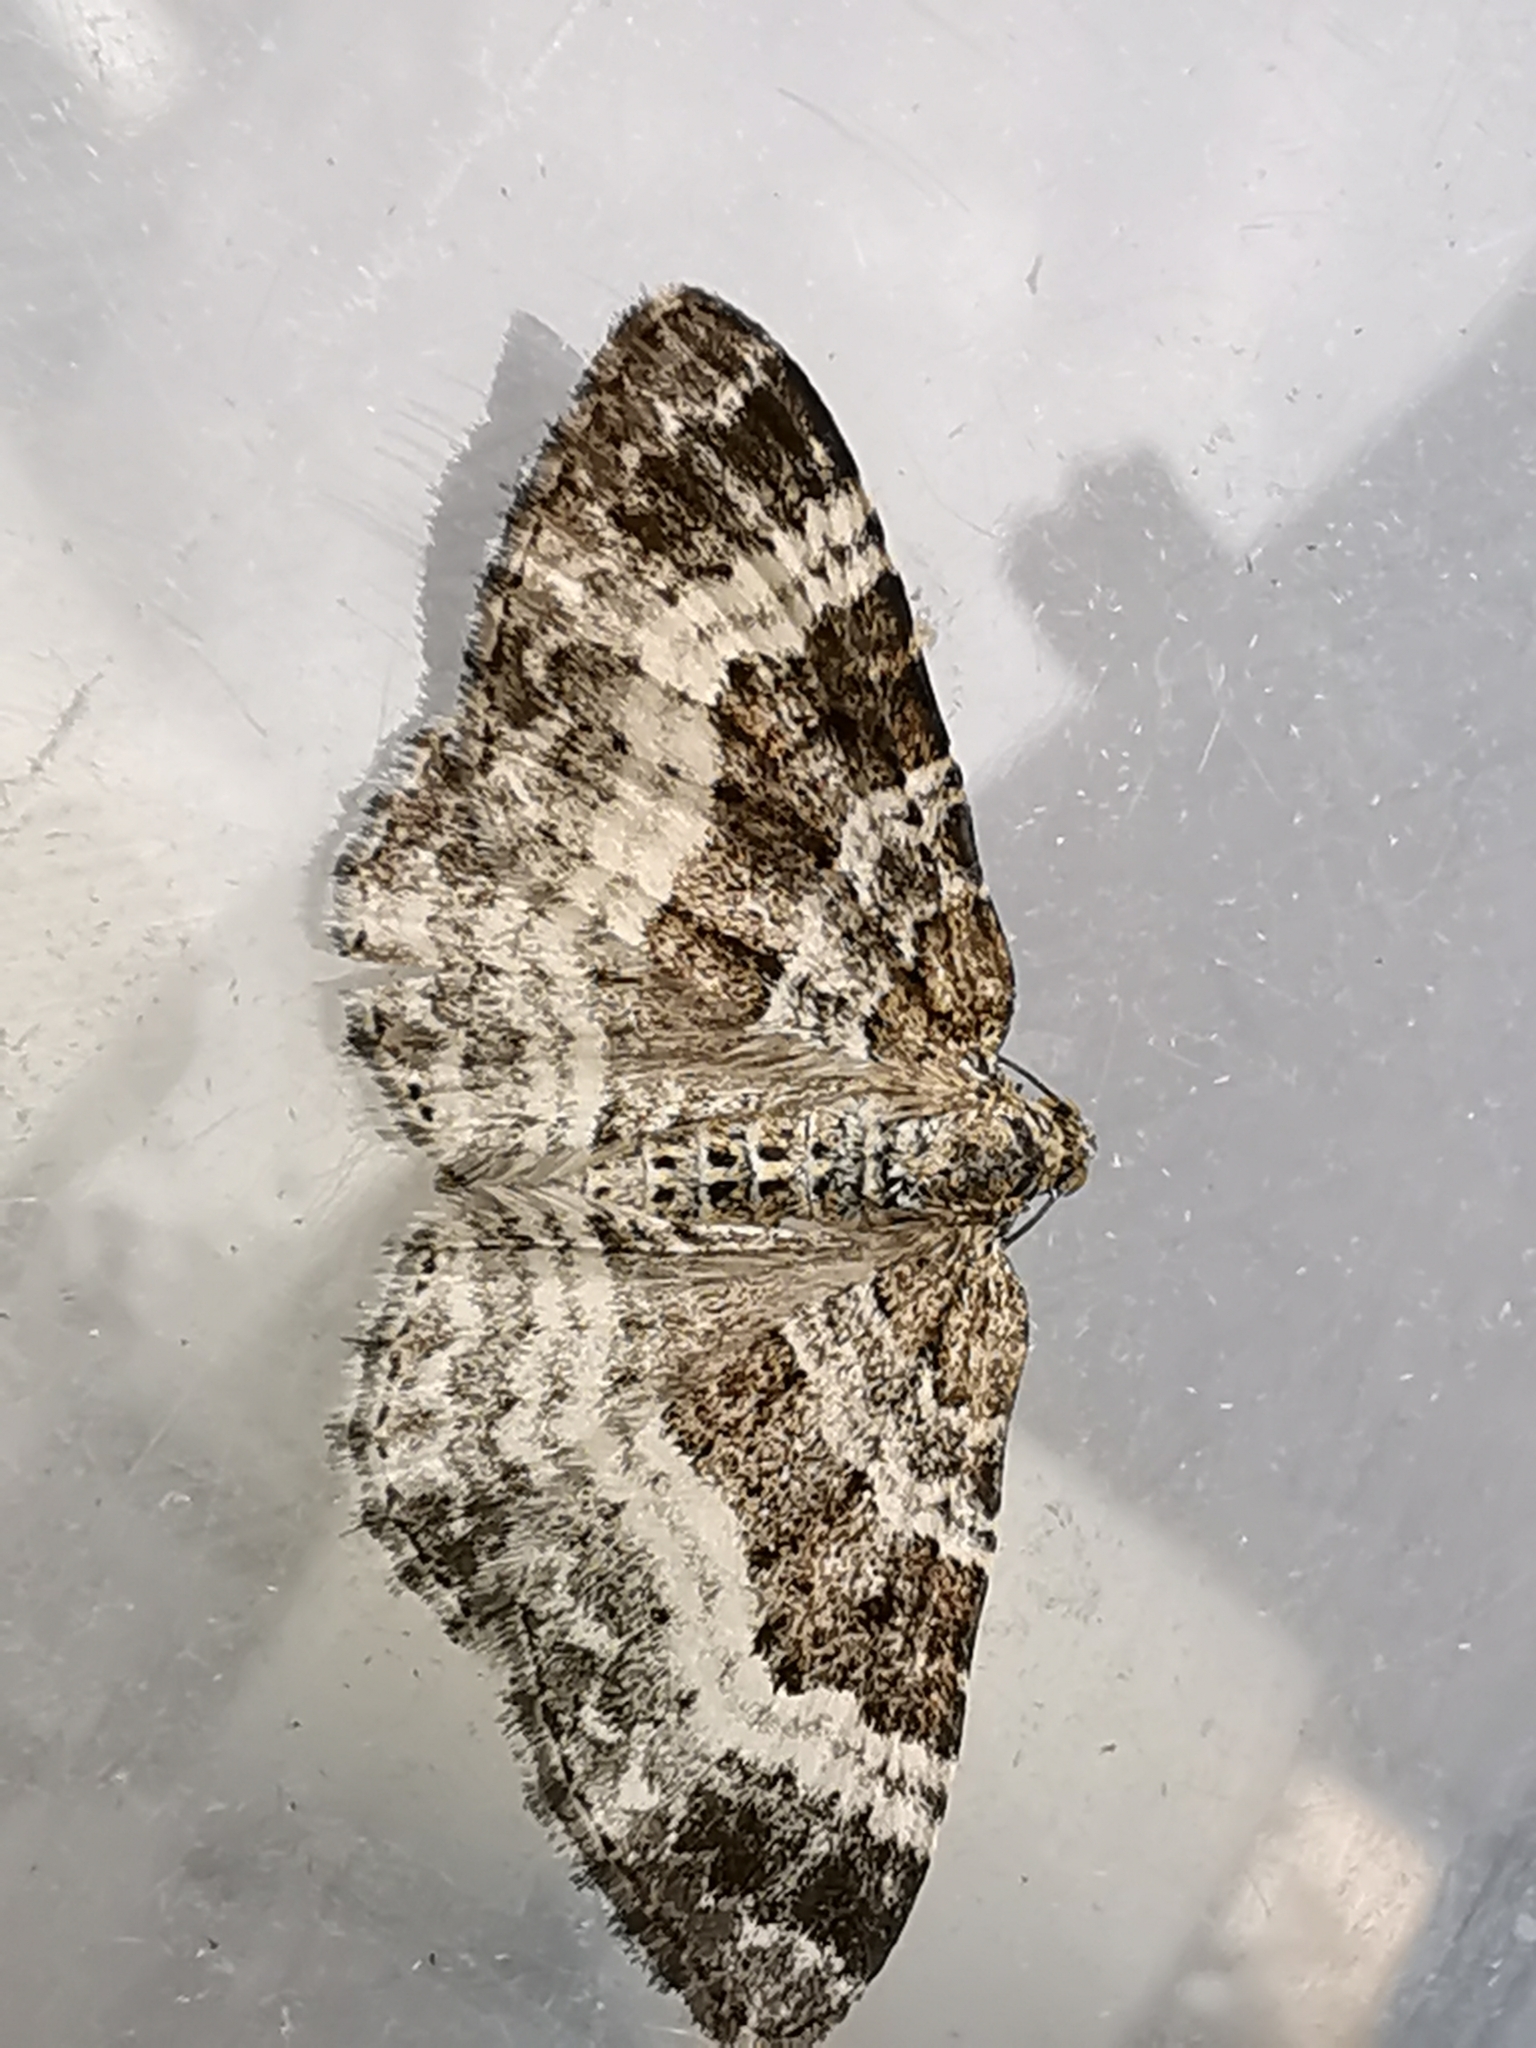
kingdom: Animalia
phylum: Arthropoda
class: Insecta
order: Lepidoptera
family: Geometridae
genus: Epirrhoe
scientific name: Epirrhoe alternata
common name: Common carpet
